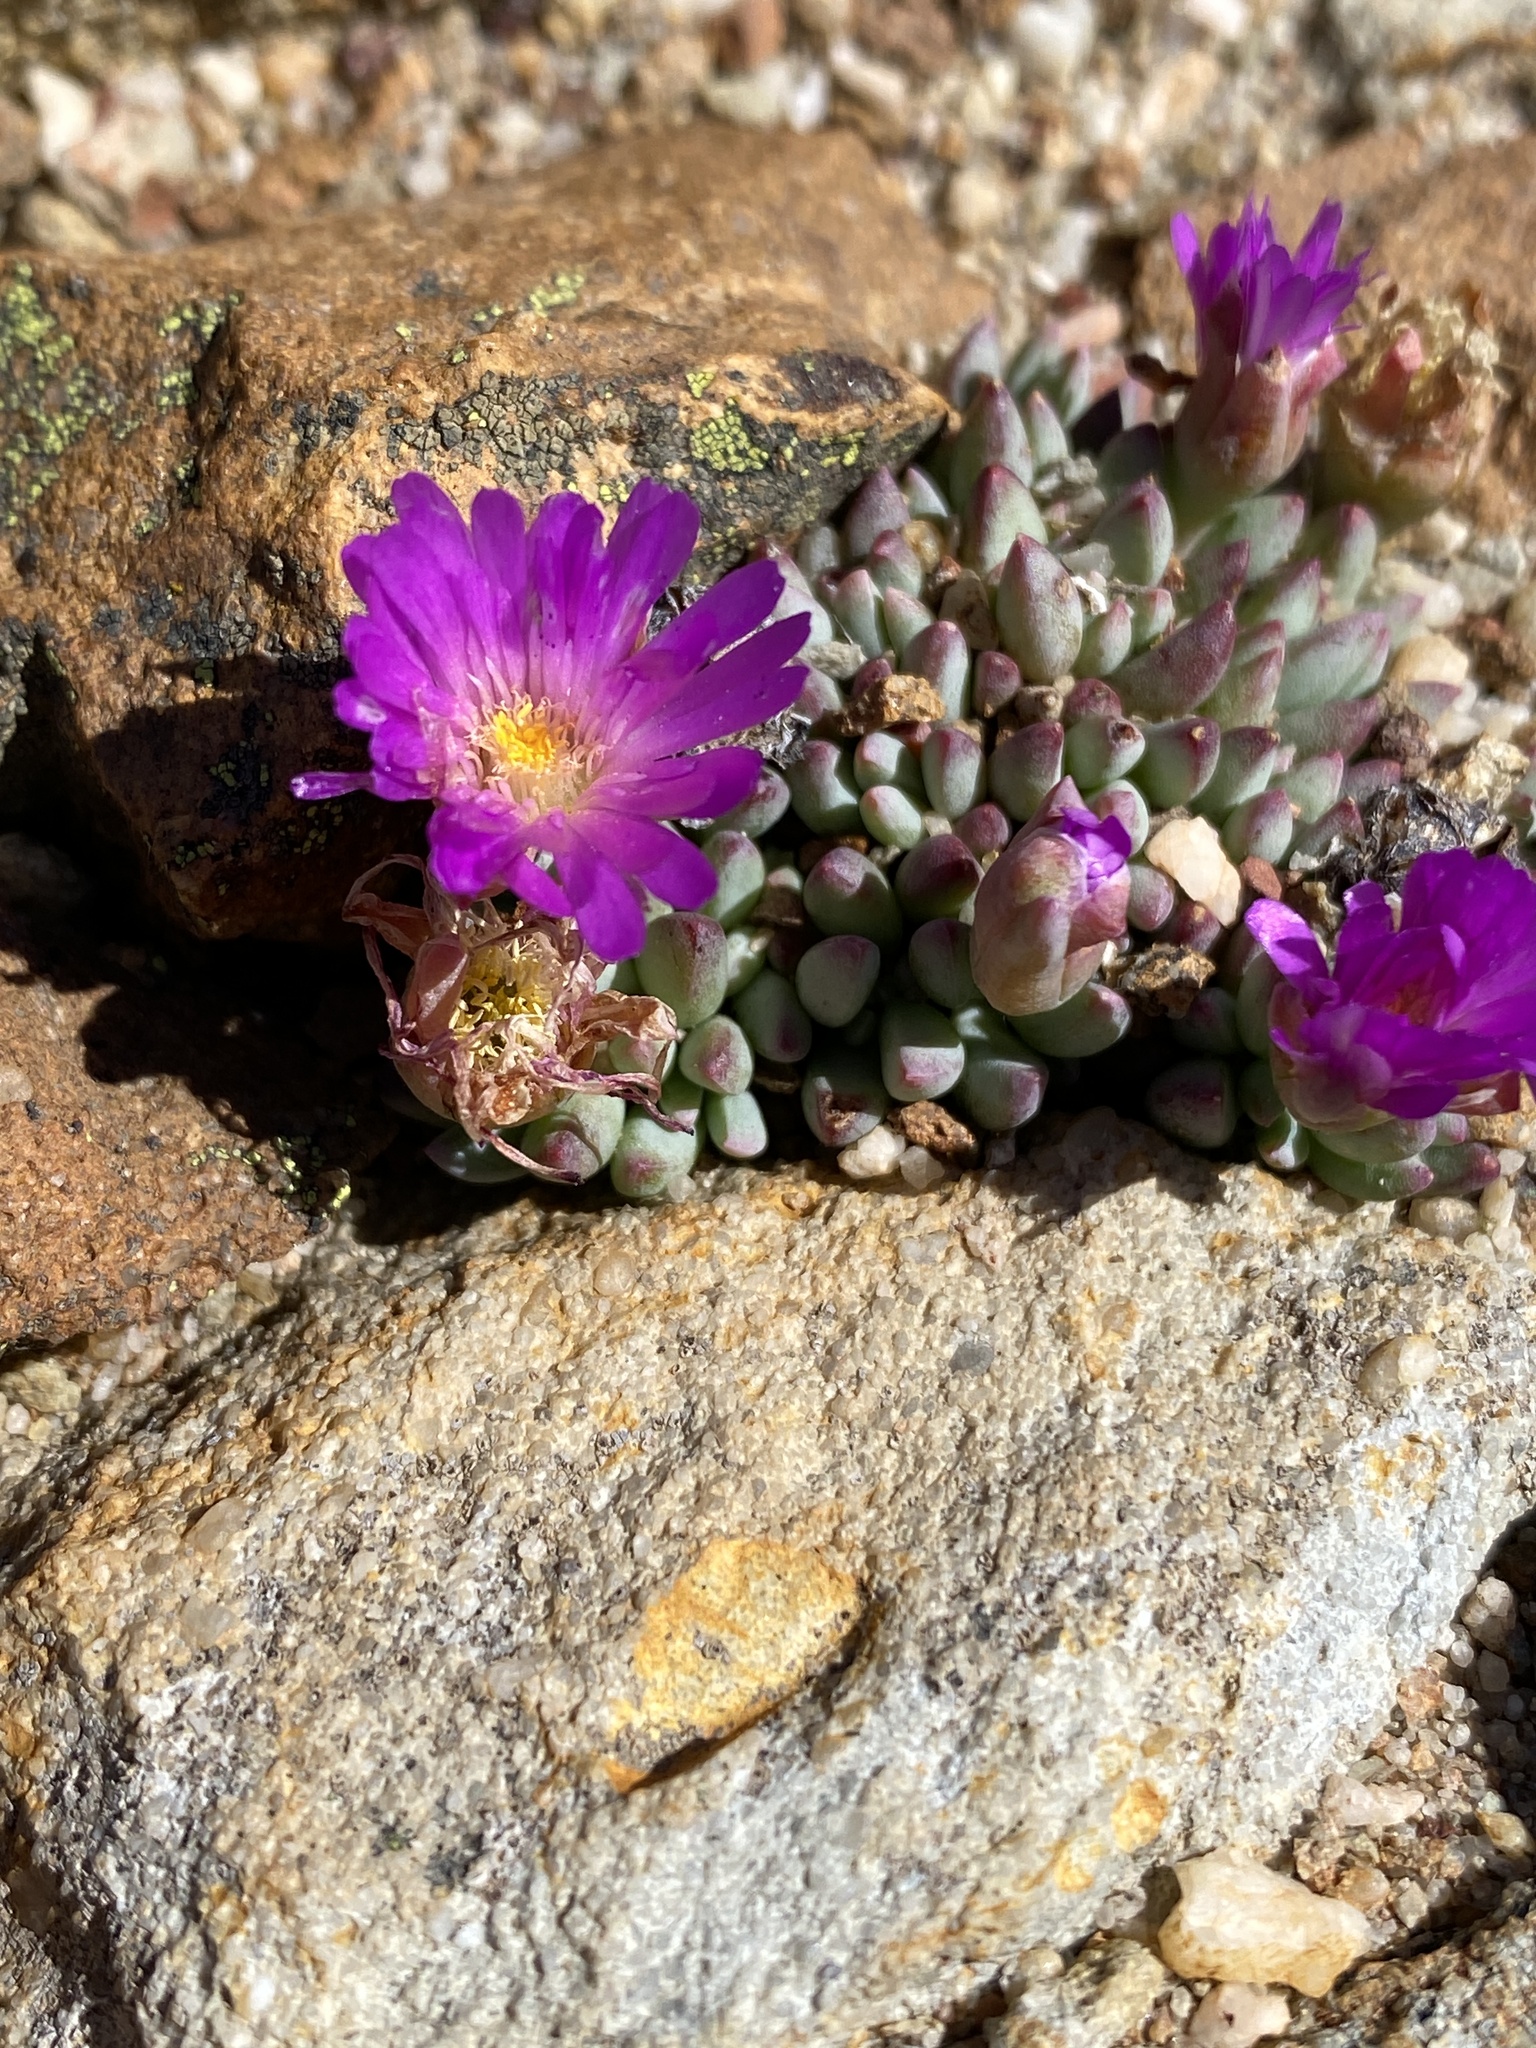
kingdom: Plantae
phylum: Tracheophyta
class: Magnoliopsida
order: Caryophyllales
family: Aizoaceae
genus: Esterhuysenia
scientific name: Esterhuysenia alpina
